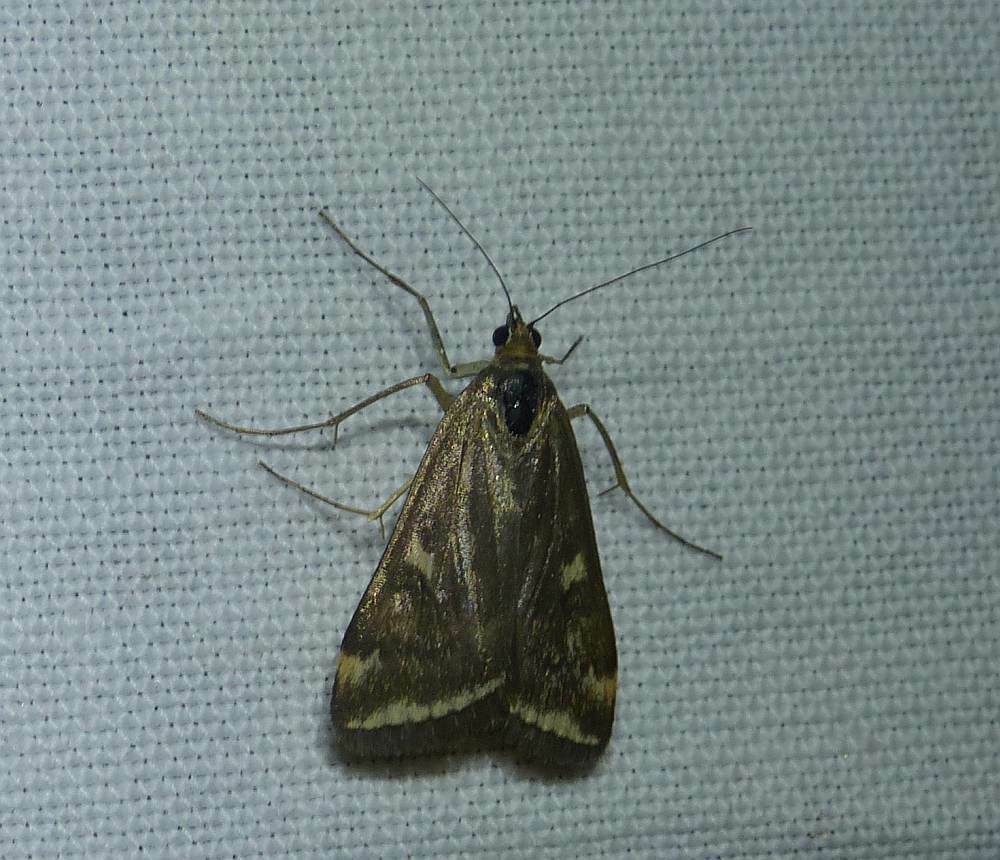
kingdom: Animalia
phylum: Arthropoda
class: Insecta
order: Lepidoptera
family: Crambidae
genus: Loxostege
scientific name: Loxostege
